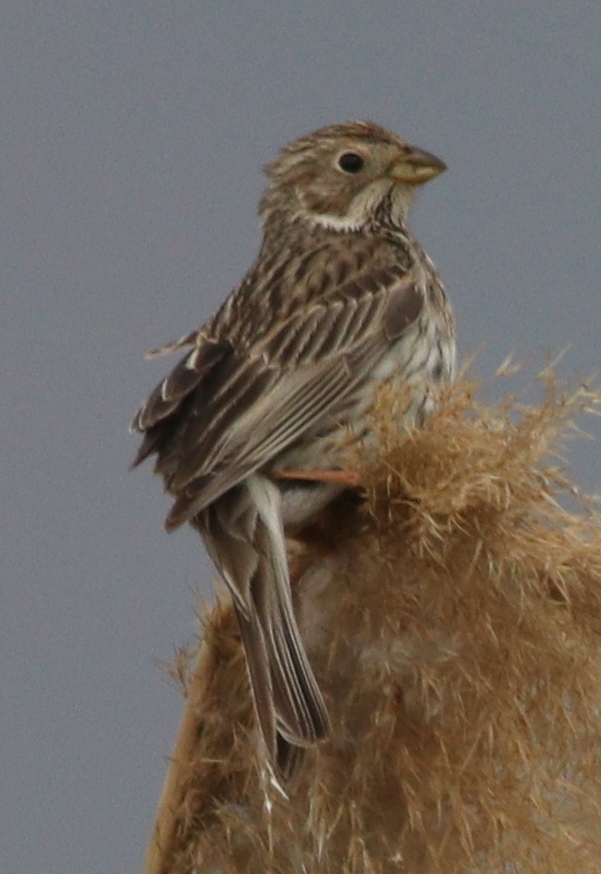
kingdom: Animalia
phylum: Chordata
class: Aves
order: Passeriformes
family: Emberizidae
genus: Emberiza
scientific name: Emberiza calandra
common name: Corn bunting
